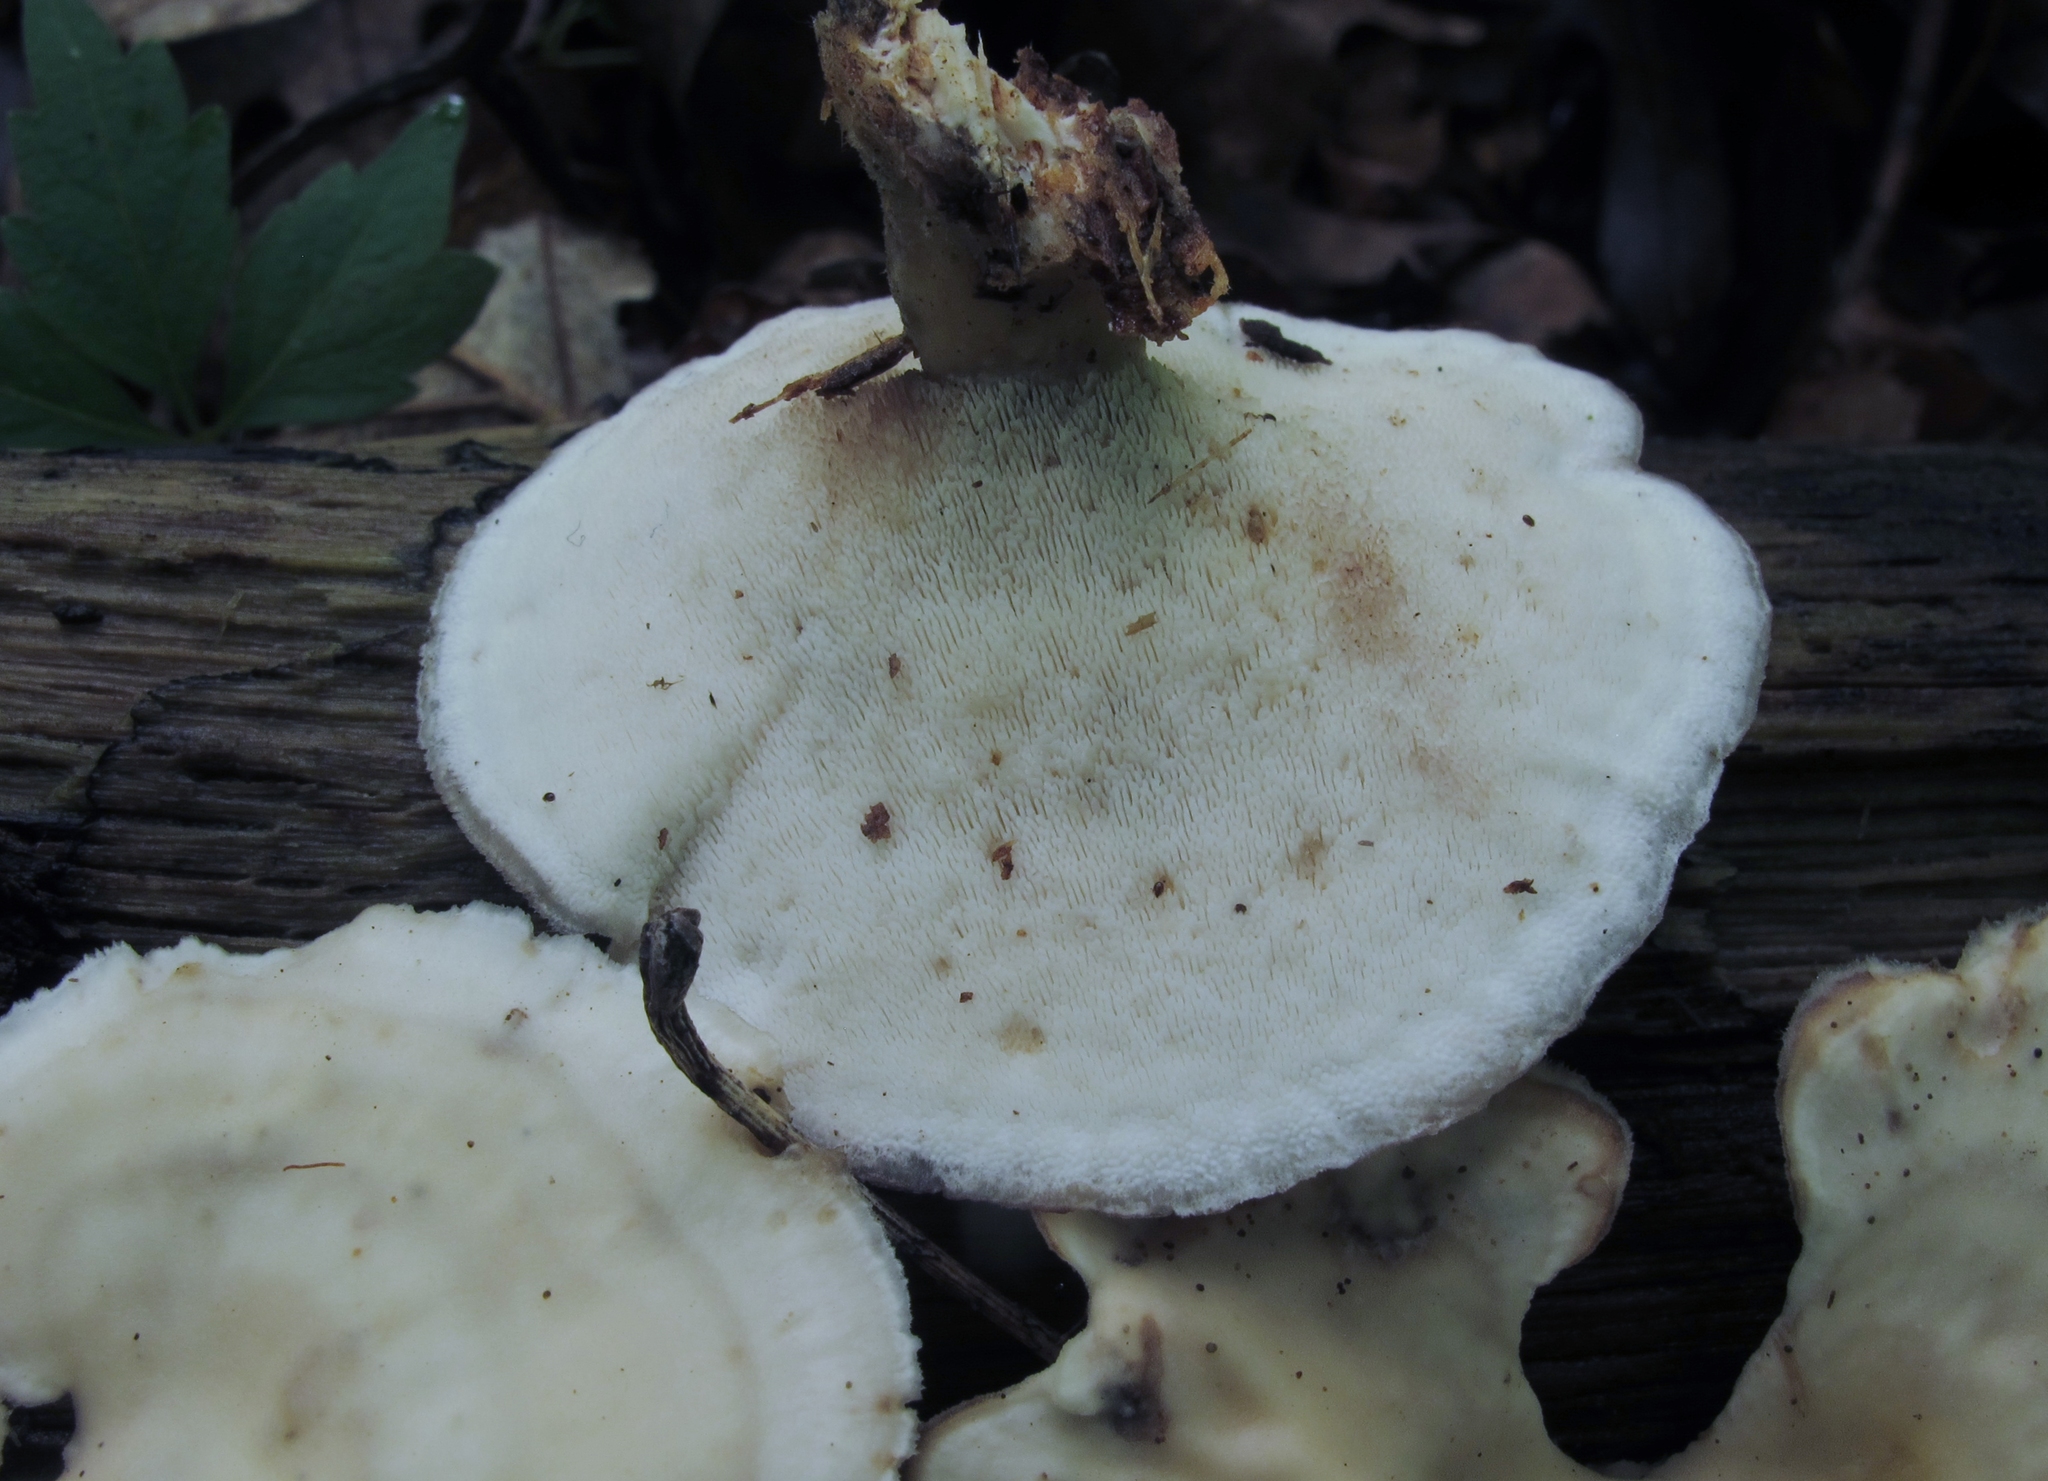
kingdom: Fungi
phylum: Basidiomycota
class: Agaricomycetes
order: Polyporales
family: Steccherinaceae
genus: Mycorrhaphium
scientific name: Mycorrhaphium adustum
